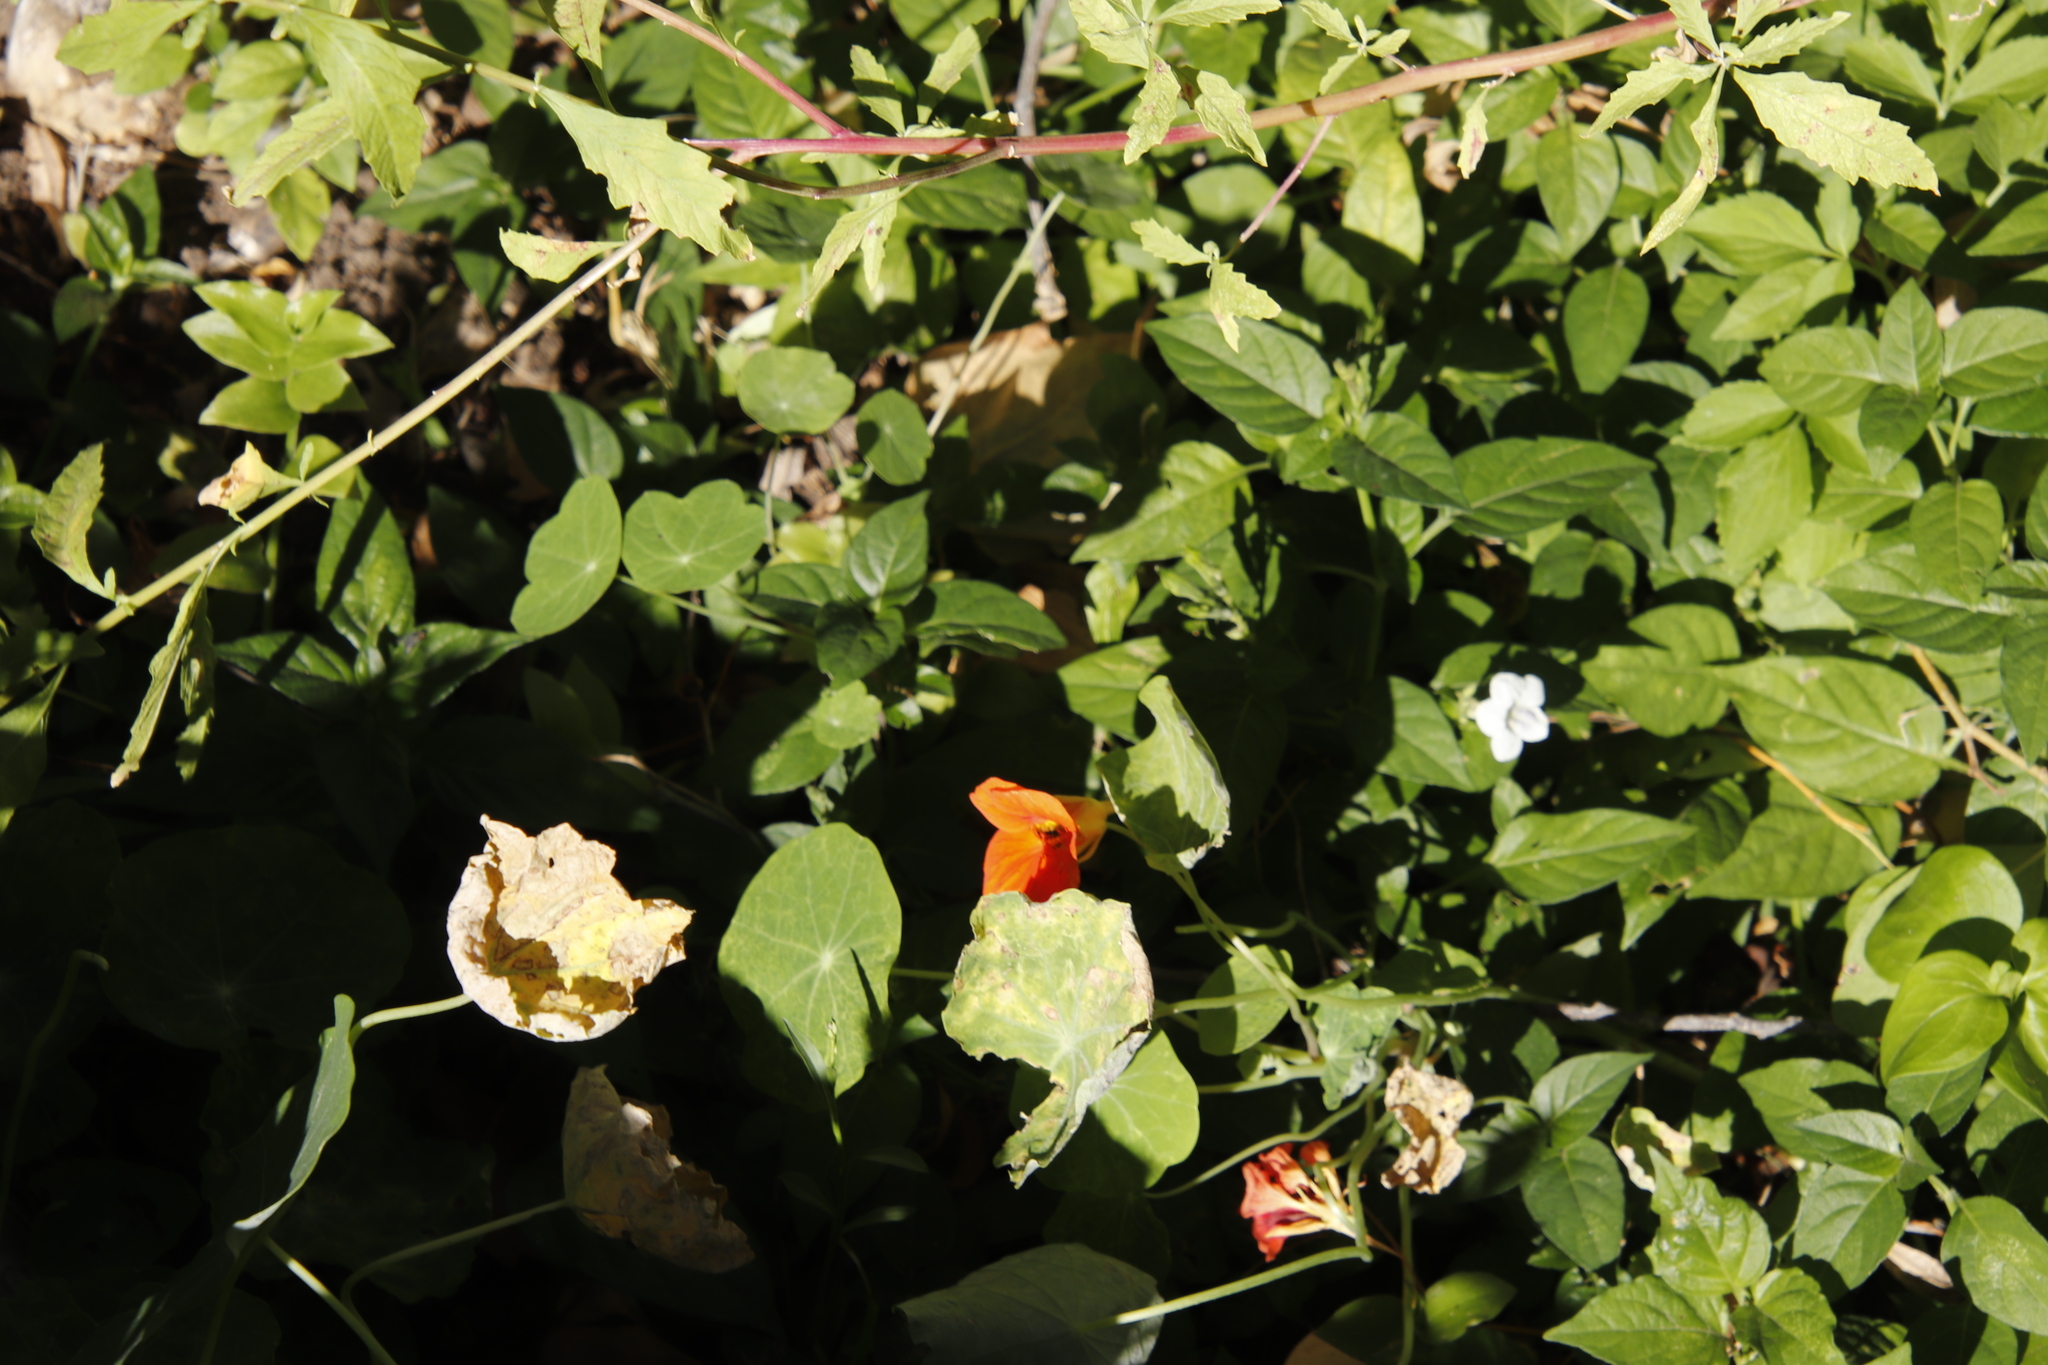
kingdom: Plantae
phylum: Tracheophyta
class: Magnoliopsida
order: Brassicales
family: Tropaeolaceae
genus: Tropaeolum
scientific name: Tropaeolum majus
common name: Nasturtium
